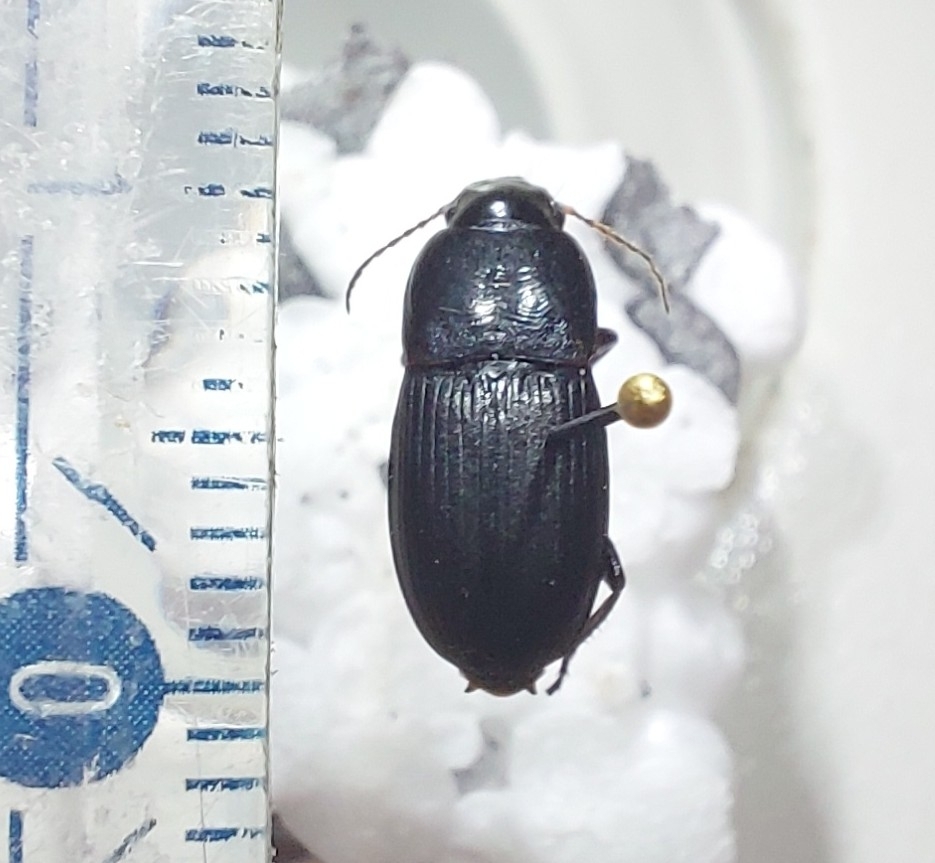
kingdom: Animalia
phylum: Arthropoda
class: Insecta
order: Coleoptera
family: Carabidae
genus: Harpalus
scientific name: Harpalus dimidiatus
